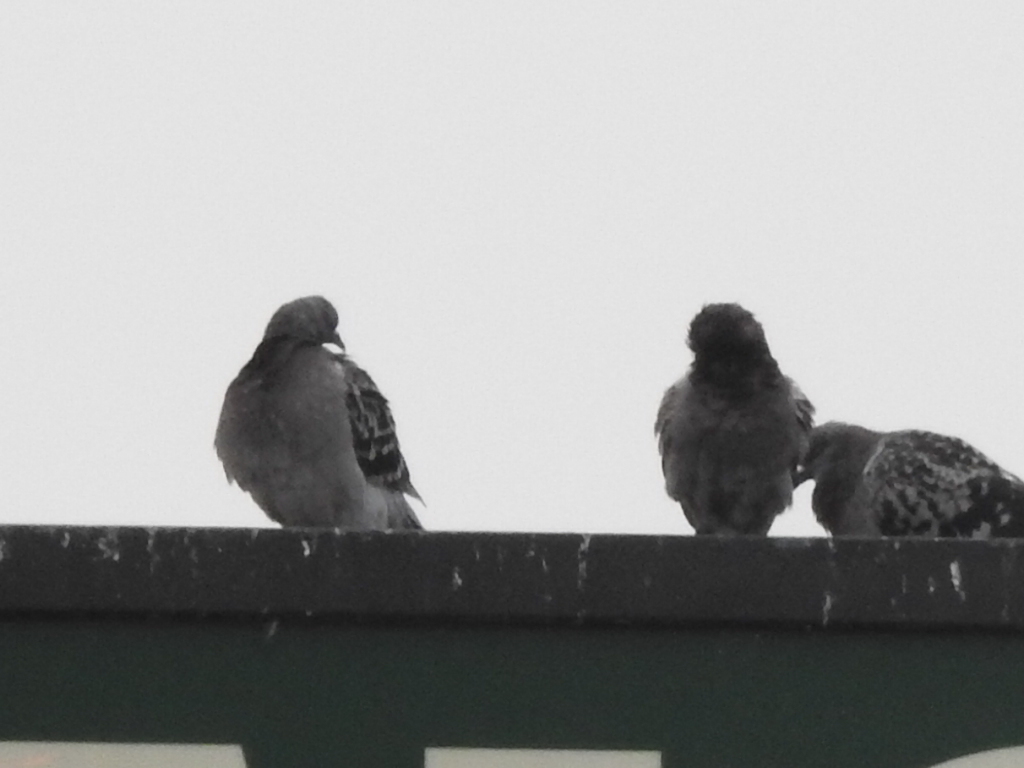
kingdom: Animalia
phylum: Chordata
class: Aves
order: Columbiformes
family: Columbidae
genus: Columba
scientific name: Columba livia
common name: Rock pigeon
